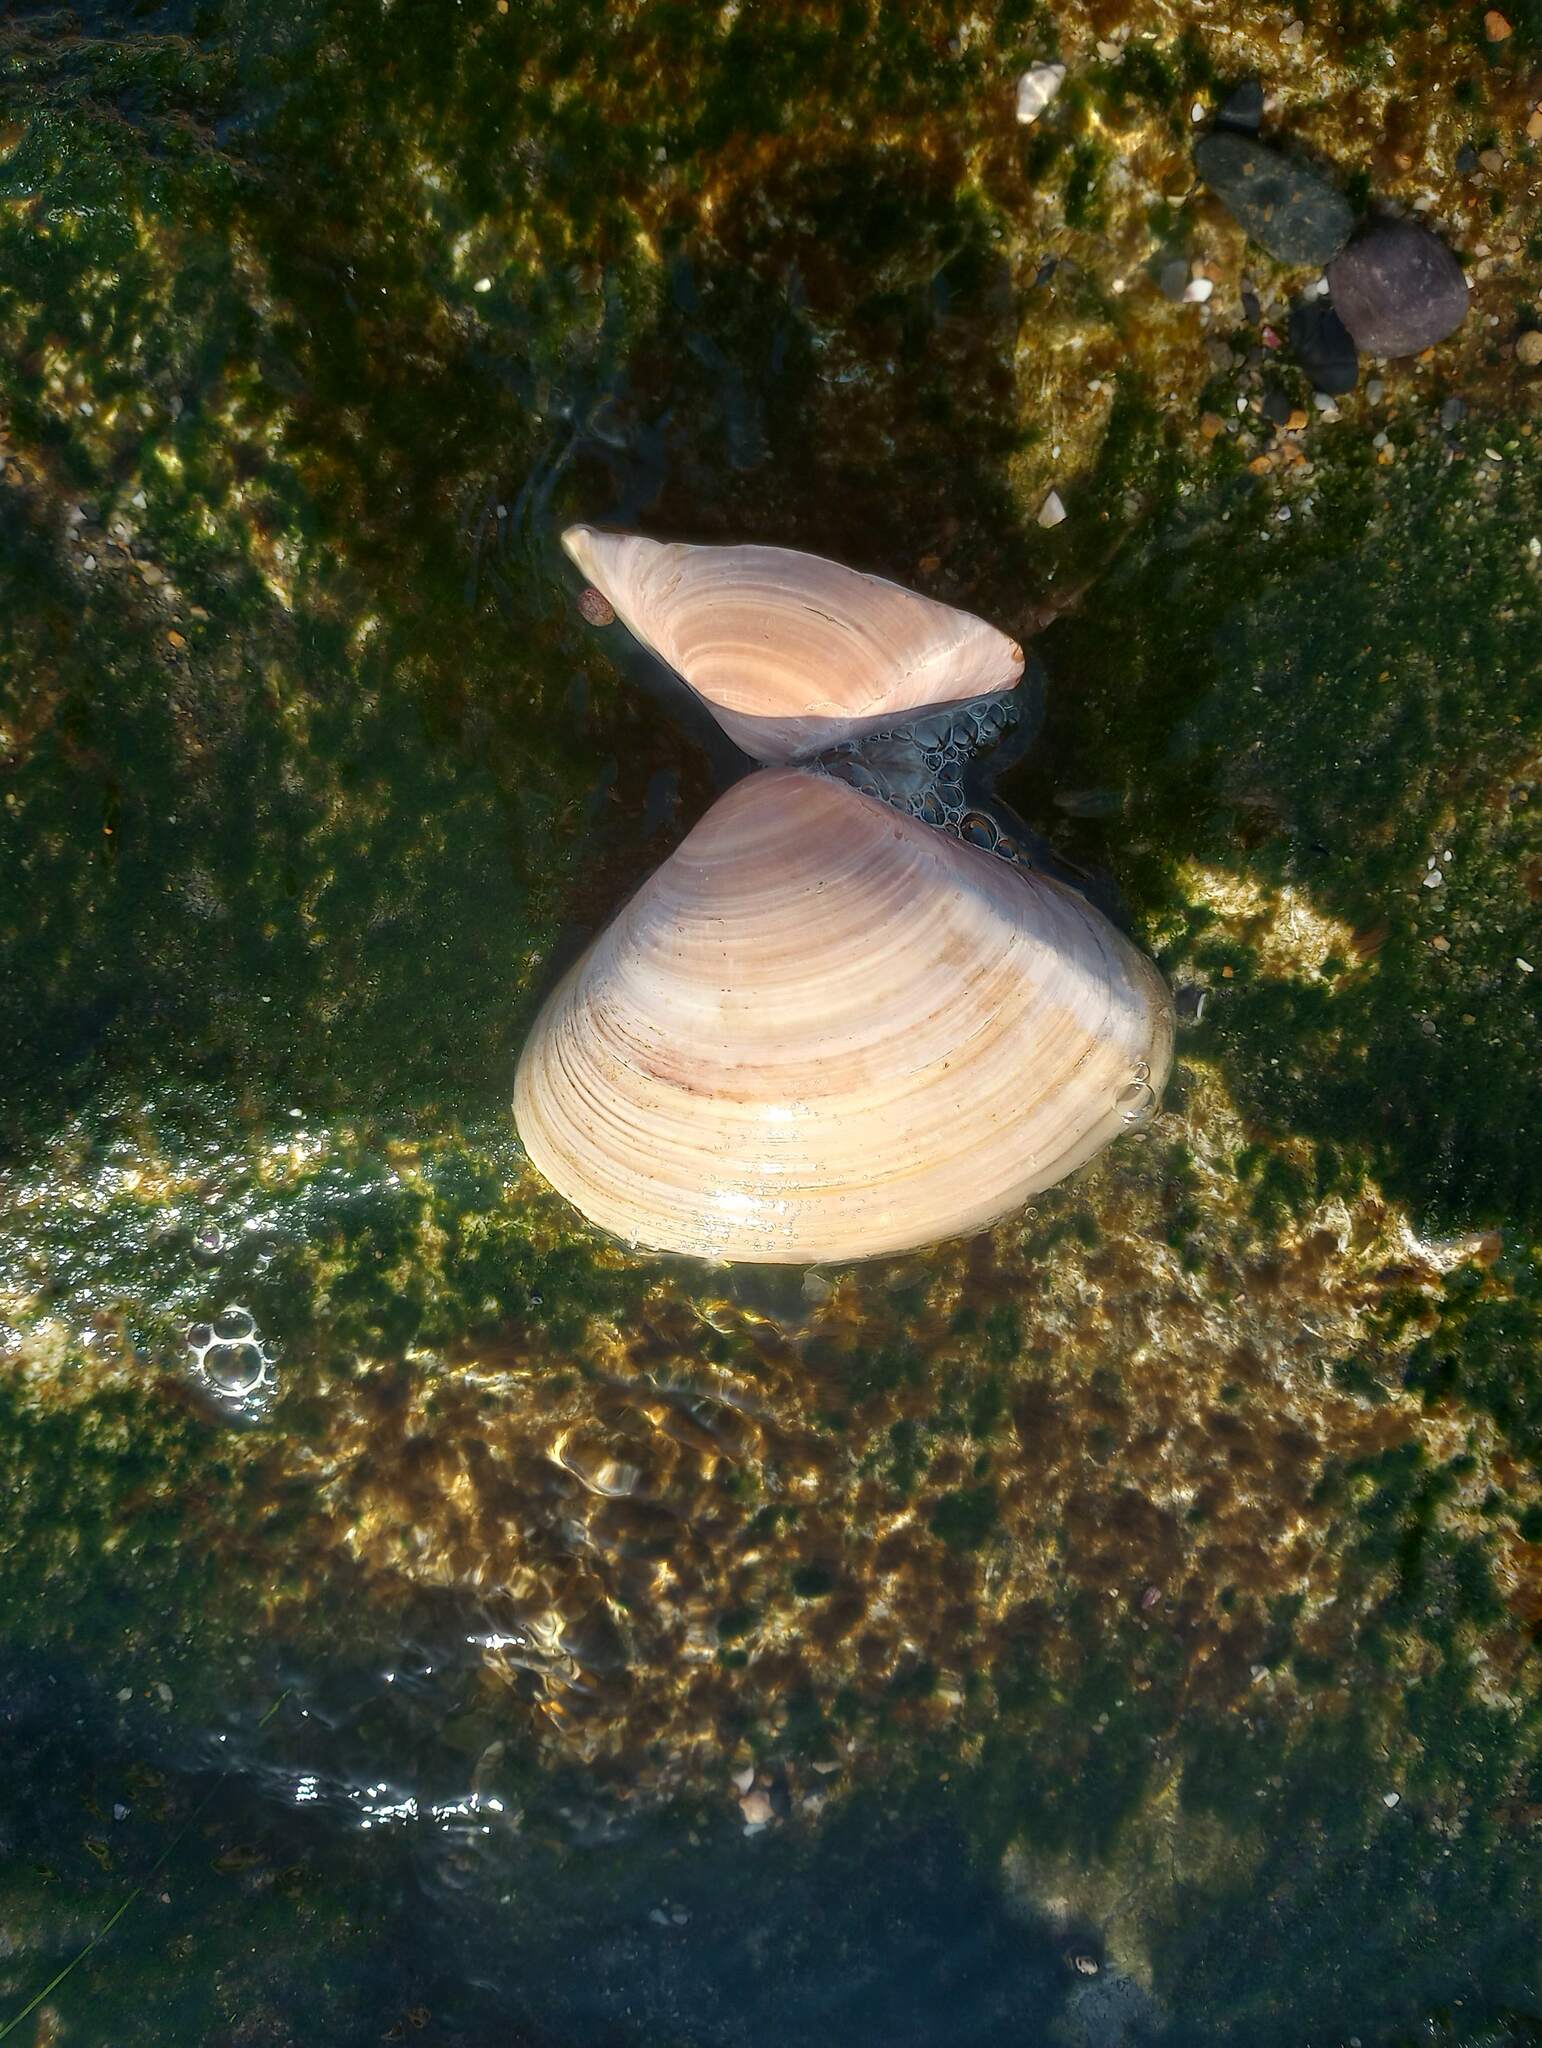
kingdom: Animalia
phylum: Mollusca
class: Bivalvia
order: Venerida
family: Veneridae
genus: Tivela
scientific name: Tivela stultorum
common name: Pismo clam
